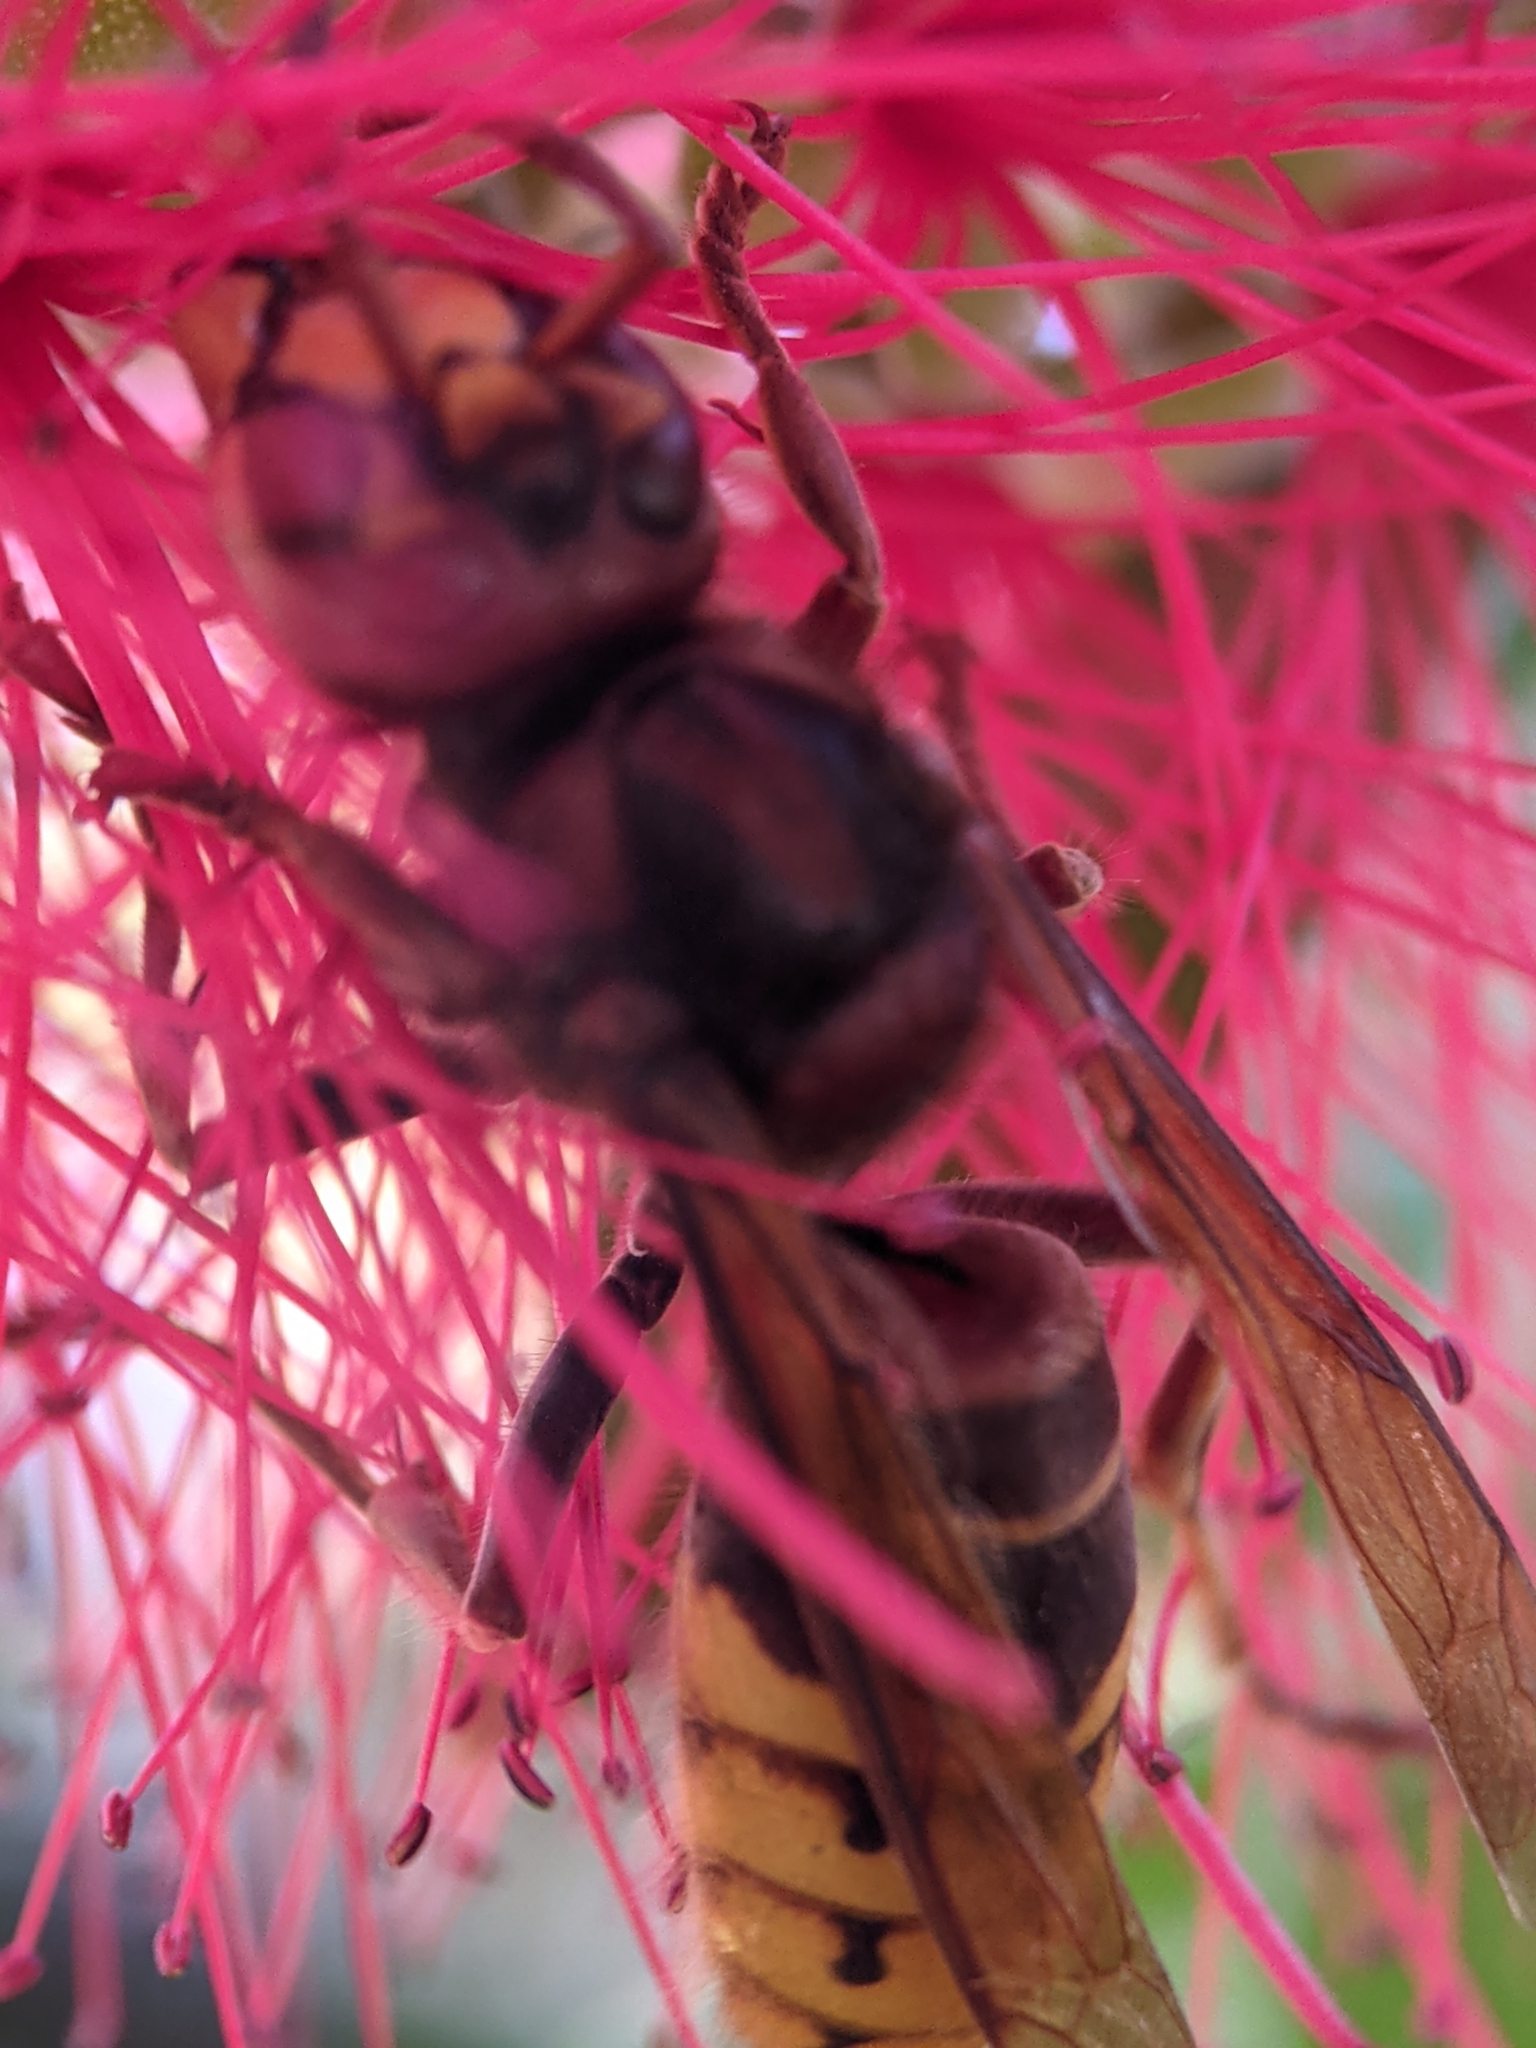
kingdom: Animalia
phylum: Arthropoda
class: Insecta
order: Hymenoptera
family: Vespidae
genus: Vespa
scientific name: Vespa crabro
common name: Hornet
